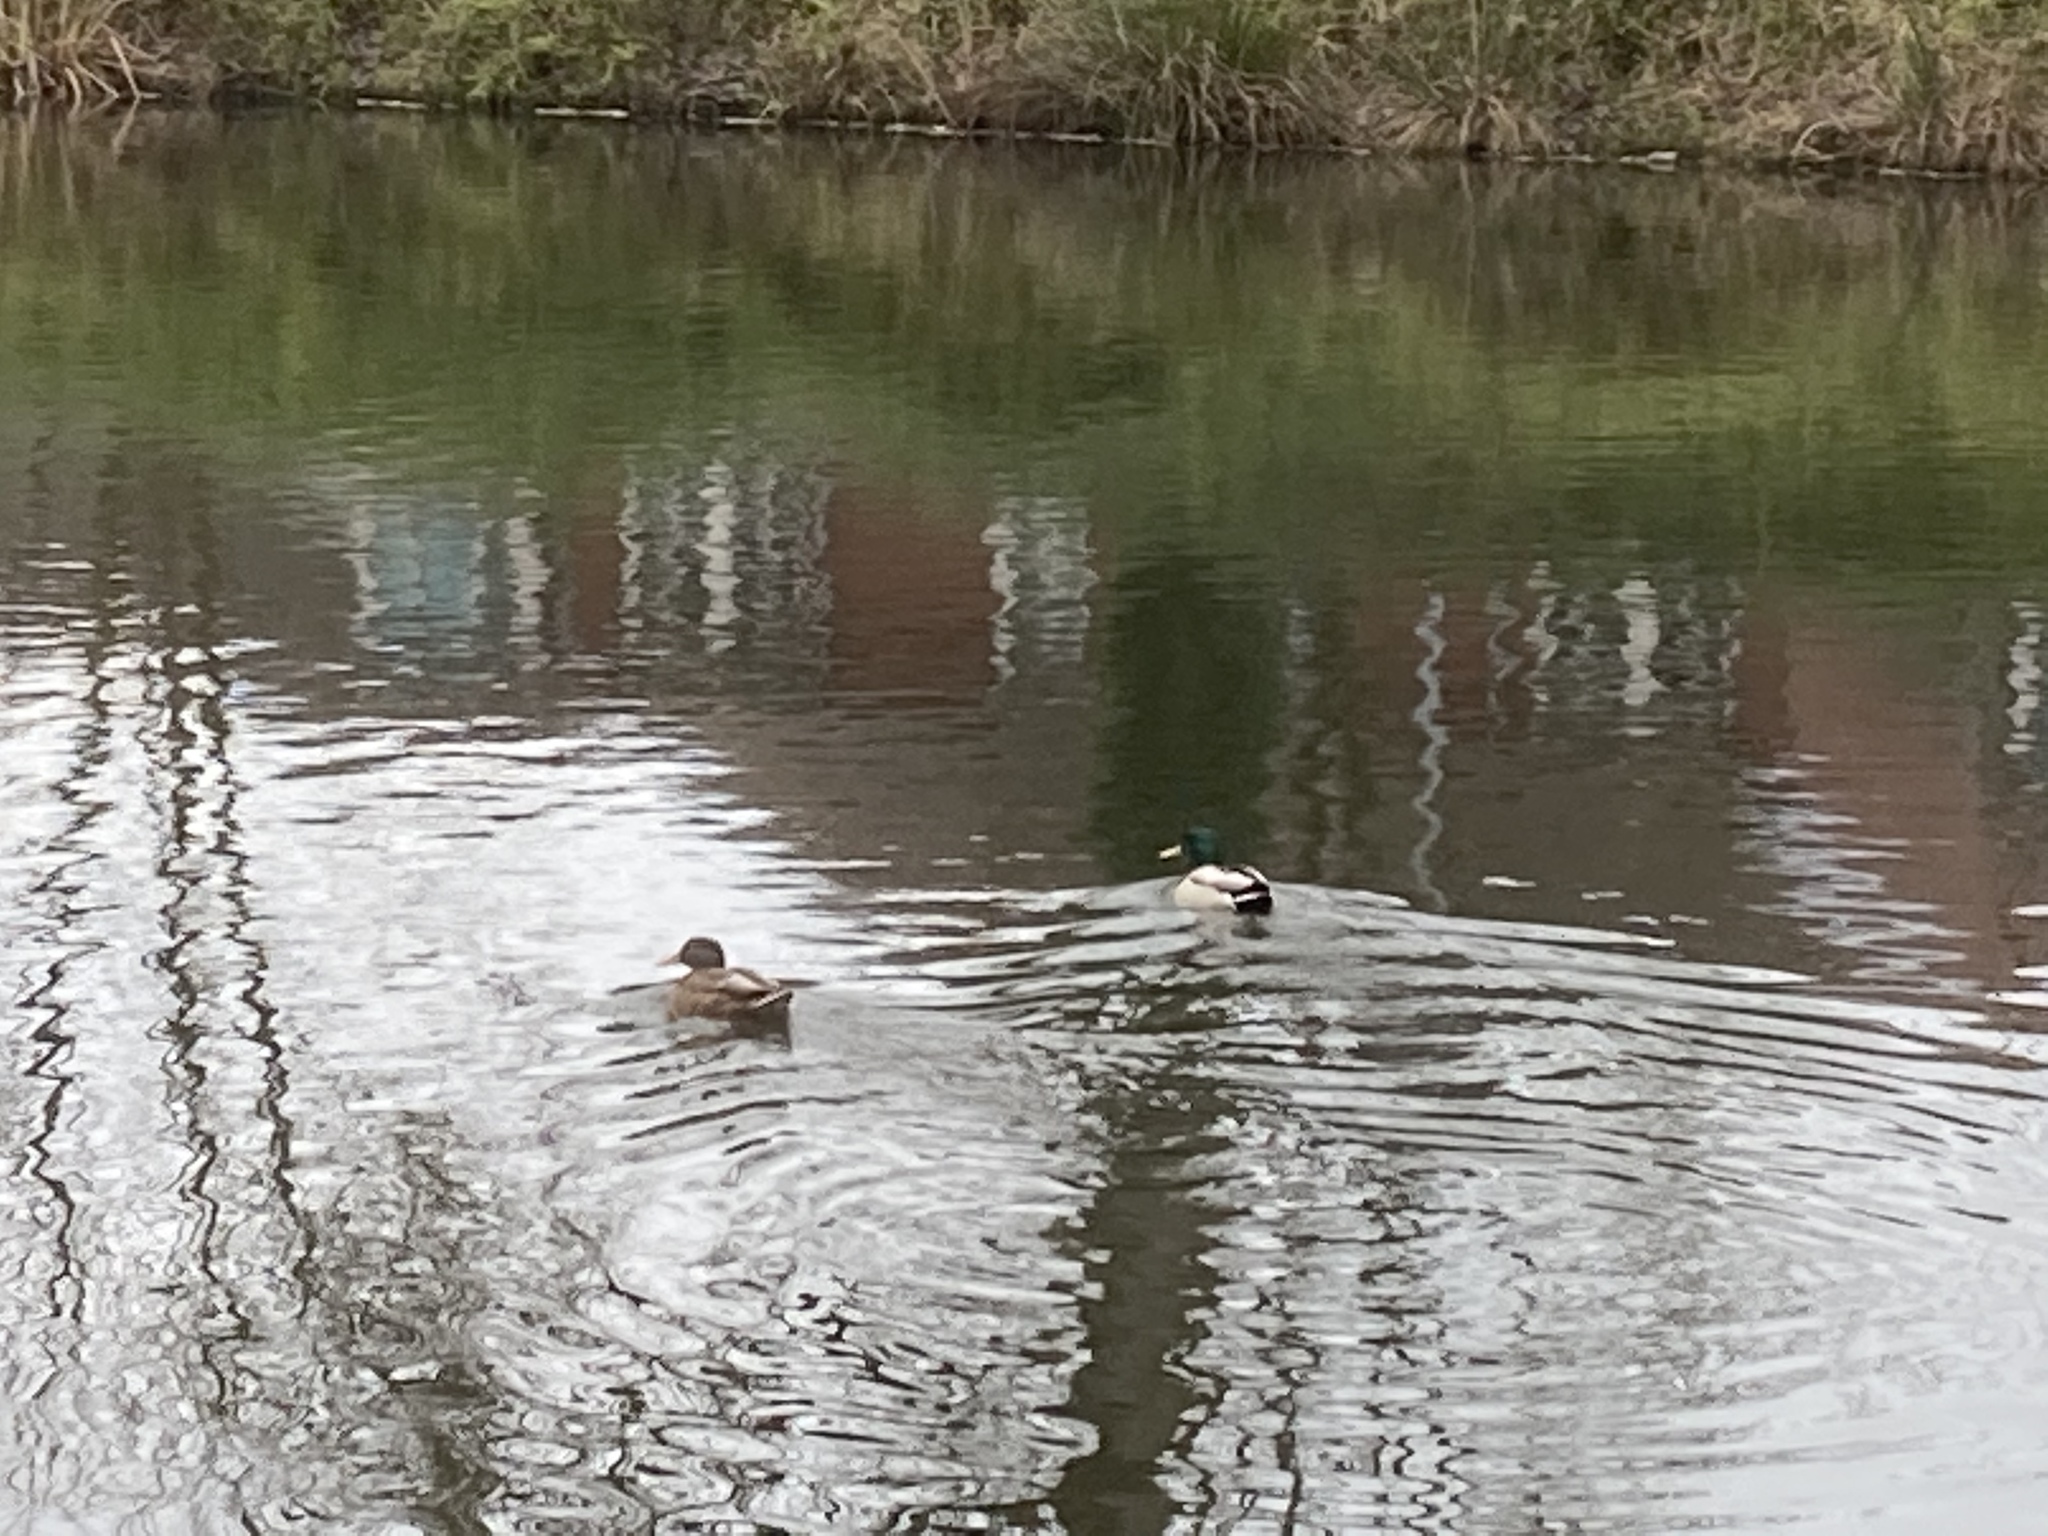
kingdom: Animalia
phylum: Chordata
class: Aves
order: Anseriformes
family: Anatidae
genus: Anas
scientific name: Anas platyrhynchos
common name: Mallard
